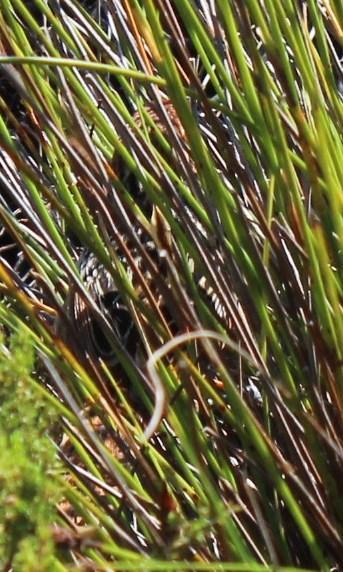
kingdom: Animalia
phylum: Chordata
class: Aves
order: Passeriformes
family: Macrosphenidae
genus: Sphenoeacus
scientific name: Sphenoeacus afer
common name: Cape grassbird
